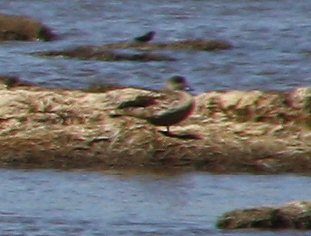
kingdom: Animalia
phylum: Chordata
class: Aves
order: Anseriformes
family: Anatidae
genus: Lophonetta
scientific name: Lophonetta specularioides
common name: Crested duck
